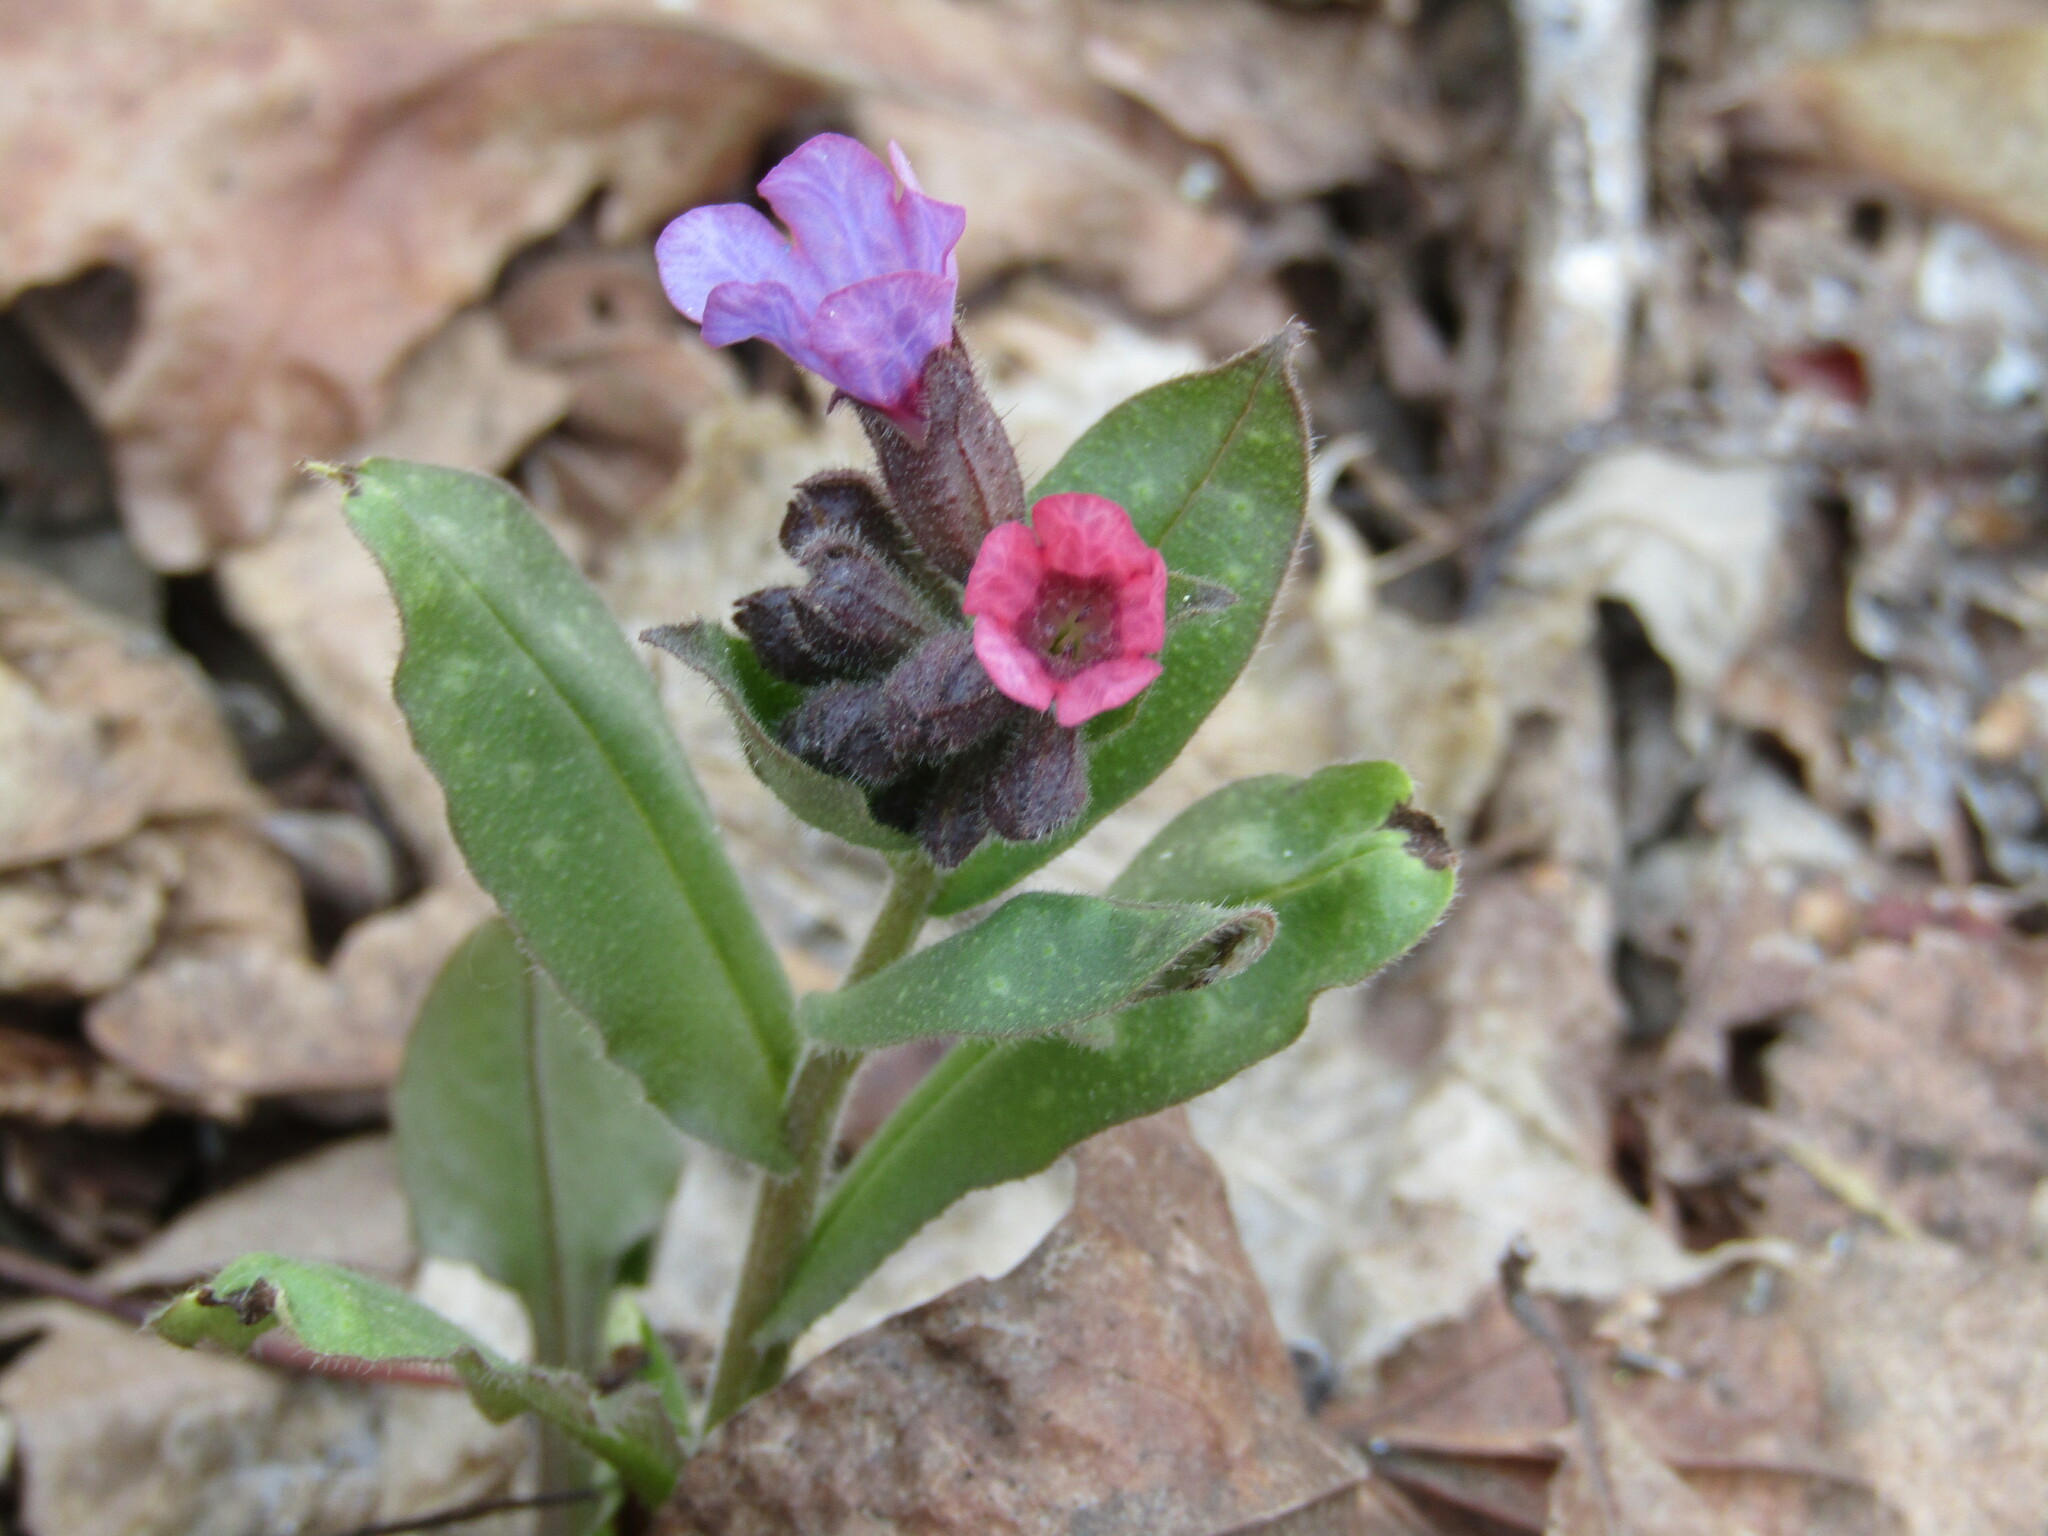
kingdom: Plantae
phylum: Tracheophyta
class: Magnoliopsida
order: Boraginales
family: Boraginaceae
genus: Pulmonaria
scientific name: Pulmonaria obscura
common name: Suffolk lungwort
